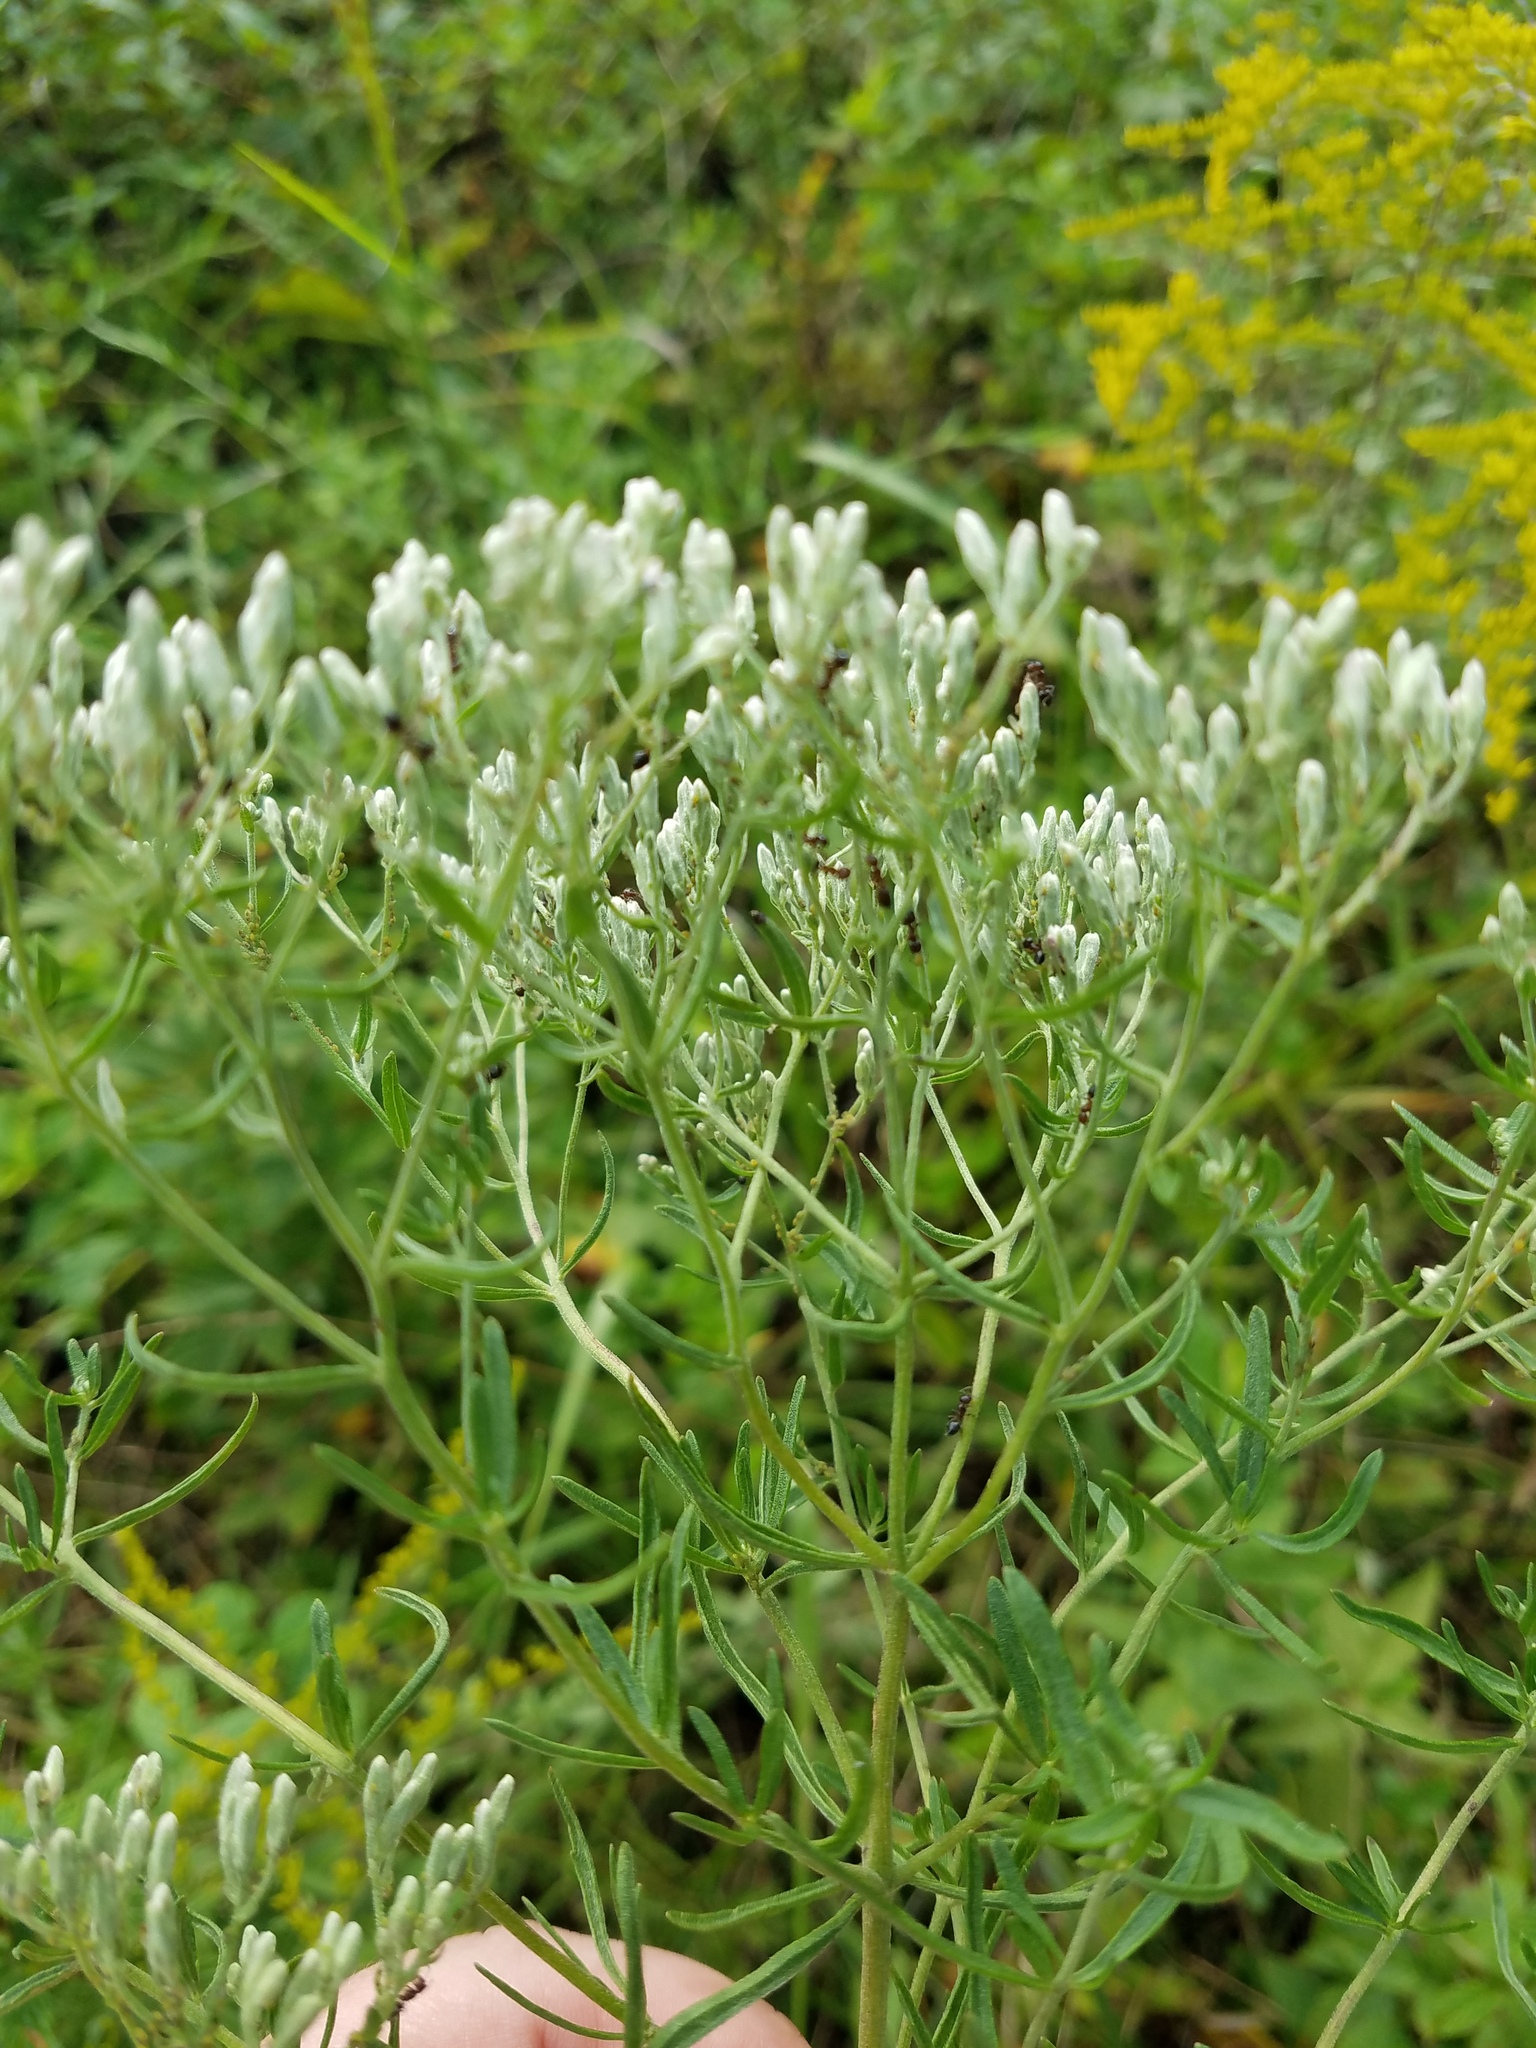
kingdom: Plantae
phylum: Tracheophyta
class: Magnoliopsida
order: Asterales
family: Asteraceae
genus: Eupatorium
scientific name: Eupatorium torreyanum
